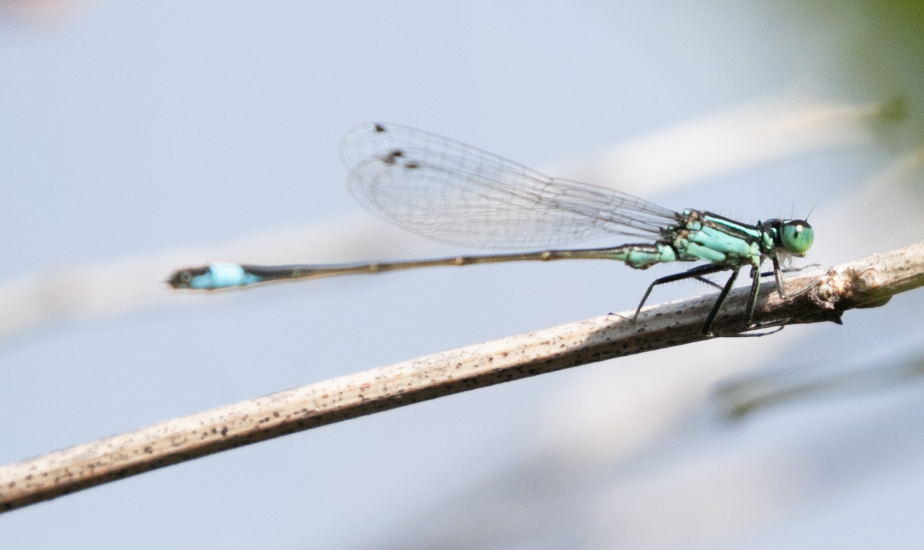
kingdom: Animalia
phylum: Arthropoda
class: Insecta
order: Odonata
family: Coenagrionidae
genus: Ischnura
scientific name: Ischnura elegans
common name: Blue-tailed damselfly
